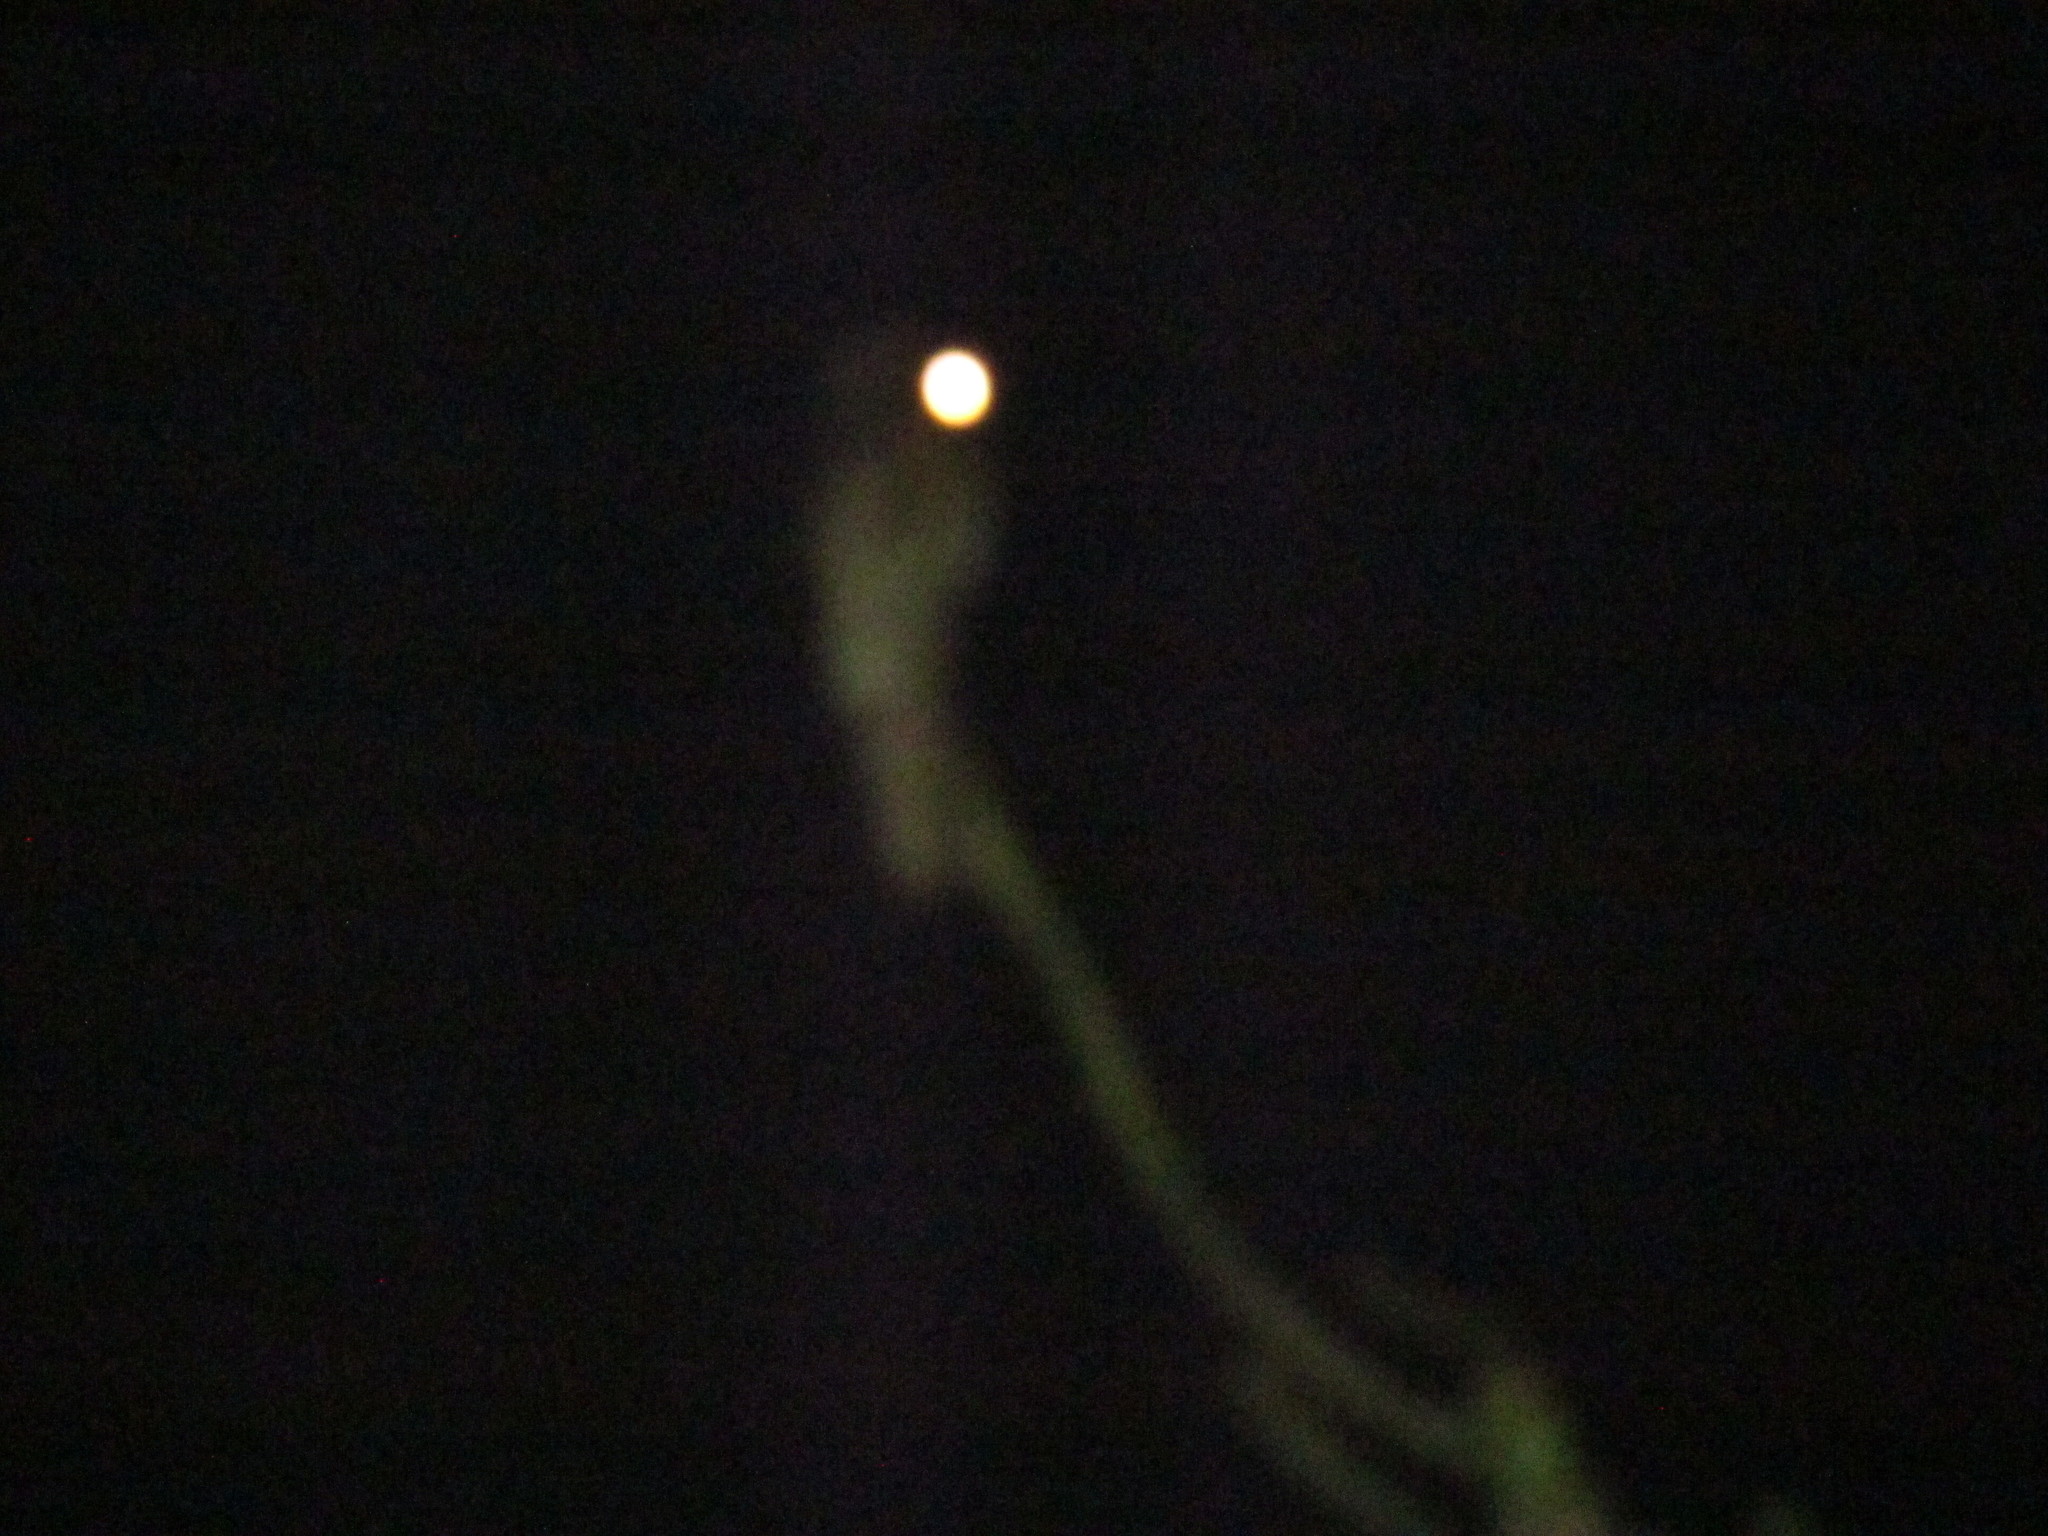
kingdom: Animalia
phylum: Chordata
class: Aves
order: Nyctibiiformes
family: Nyctibiidae
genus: Nyctibius
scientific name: Nyctibius griseus
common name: Common potoo
